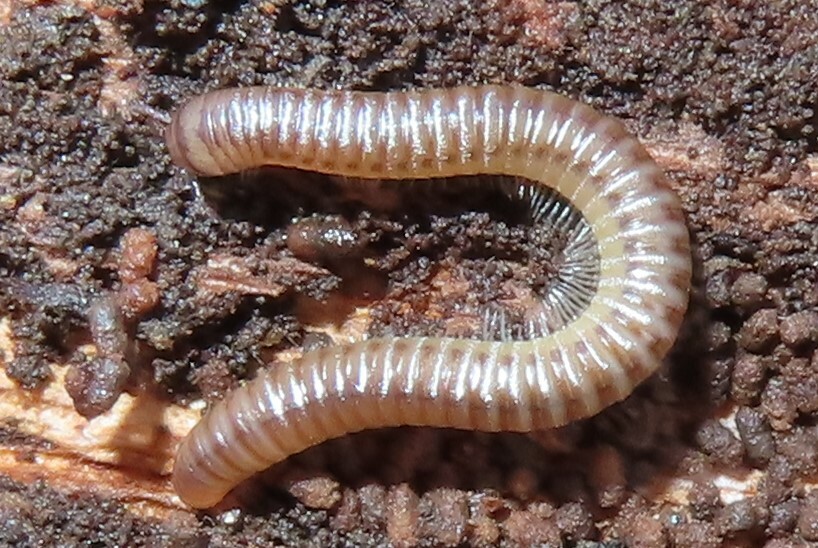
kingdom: Animalia
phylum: Arthropoda
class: Diplopoda
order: Julida
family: Julidae
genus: Cylindroiulus
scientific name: Cylindroiulus punctatus
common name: Blunt-tailed millipede
